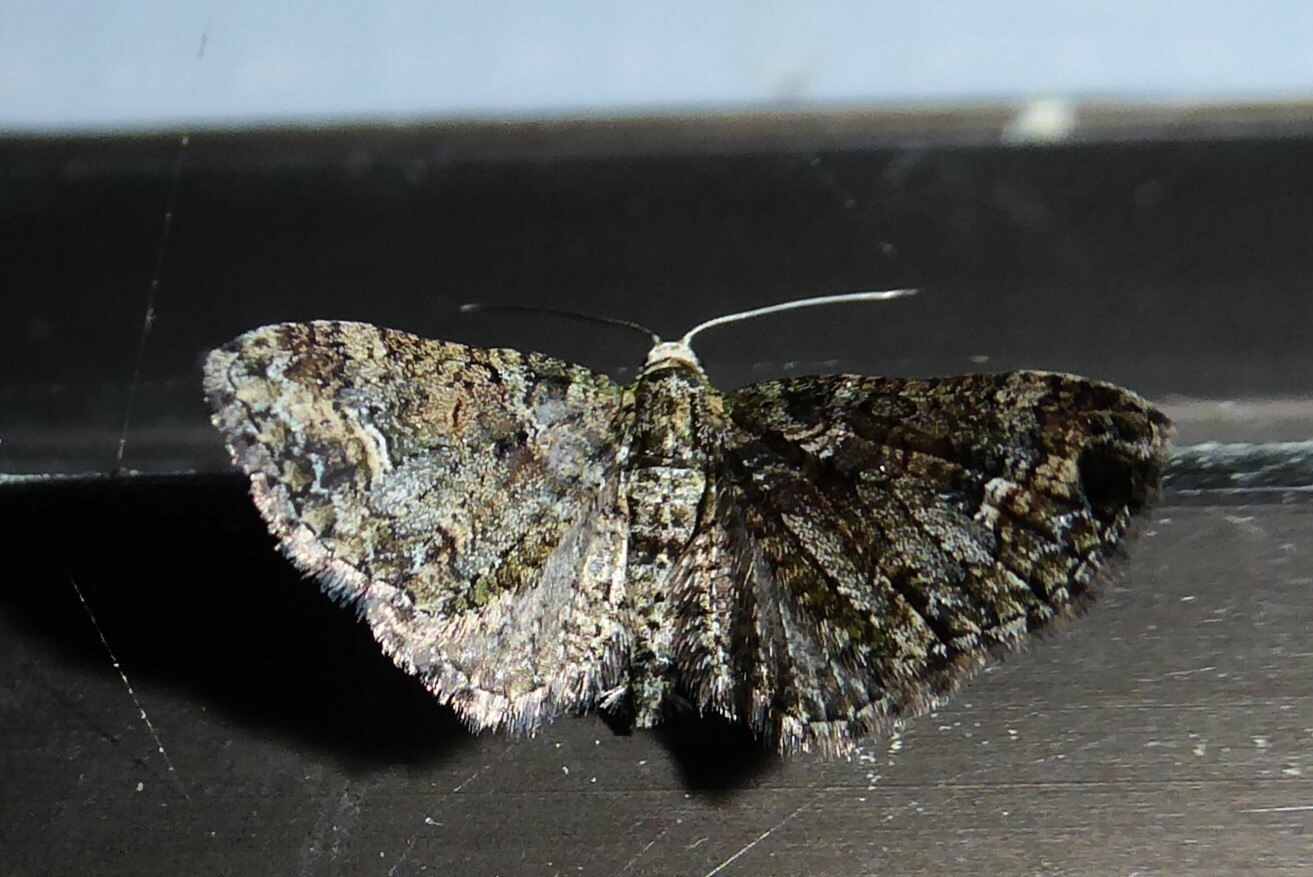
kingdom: Animalia
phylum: Arthropoda
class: Insecta
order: Lepidoptera
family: Geometridae
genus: Idaea
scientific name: Idaea mutanda
